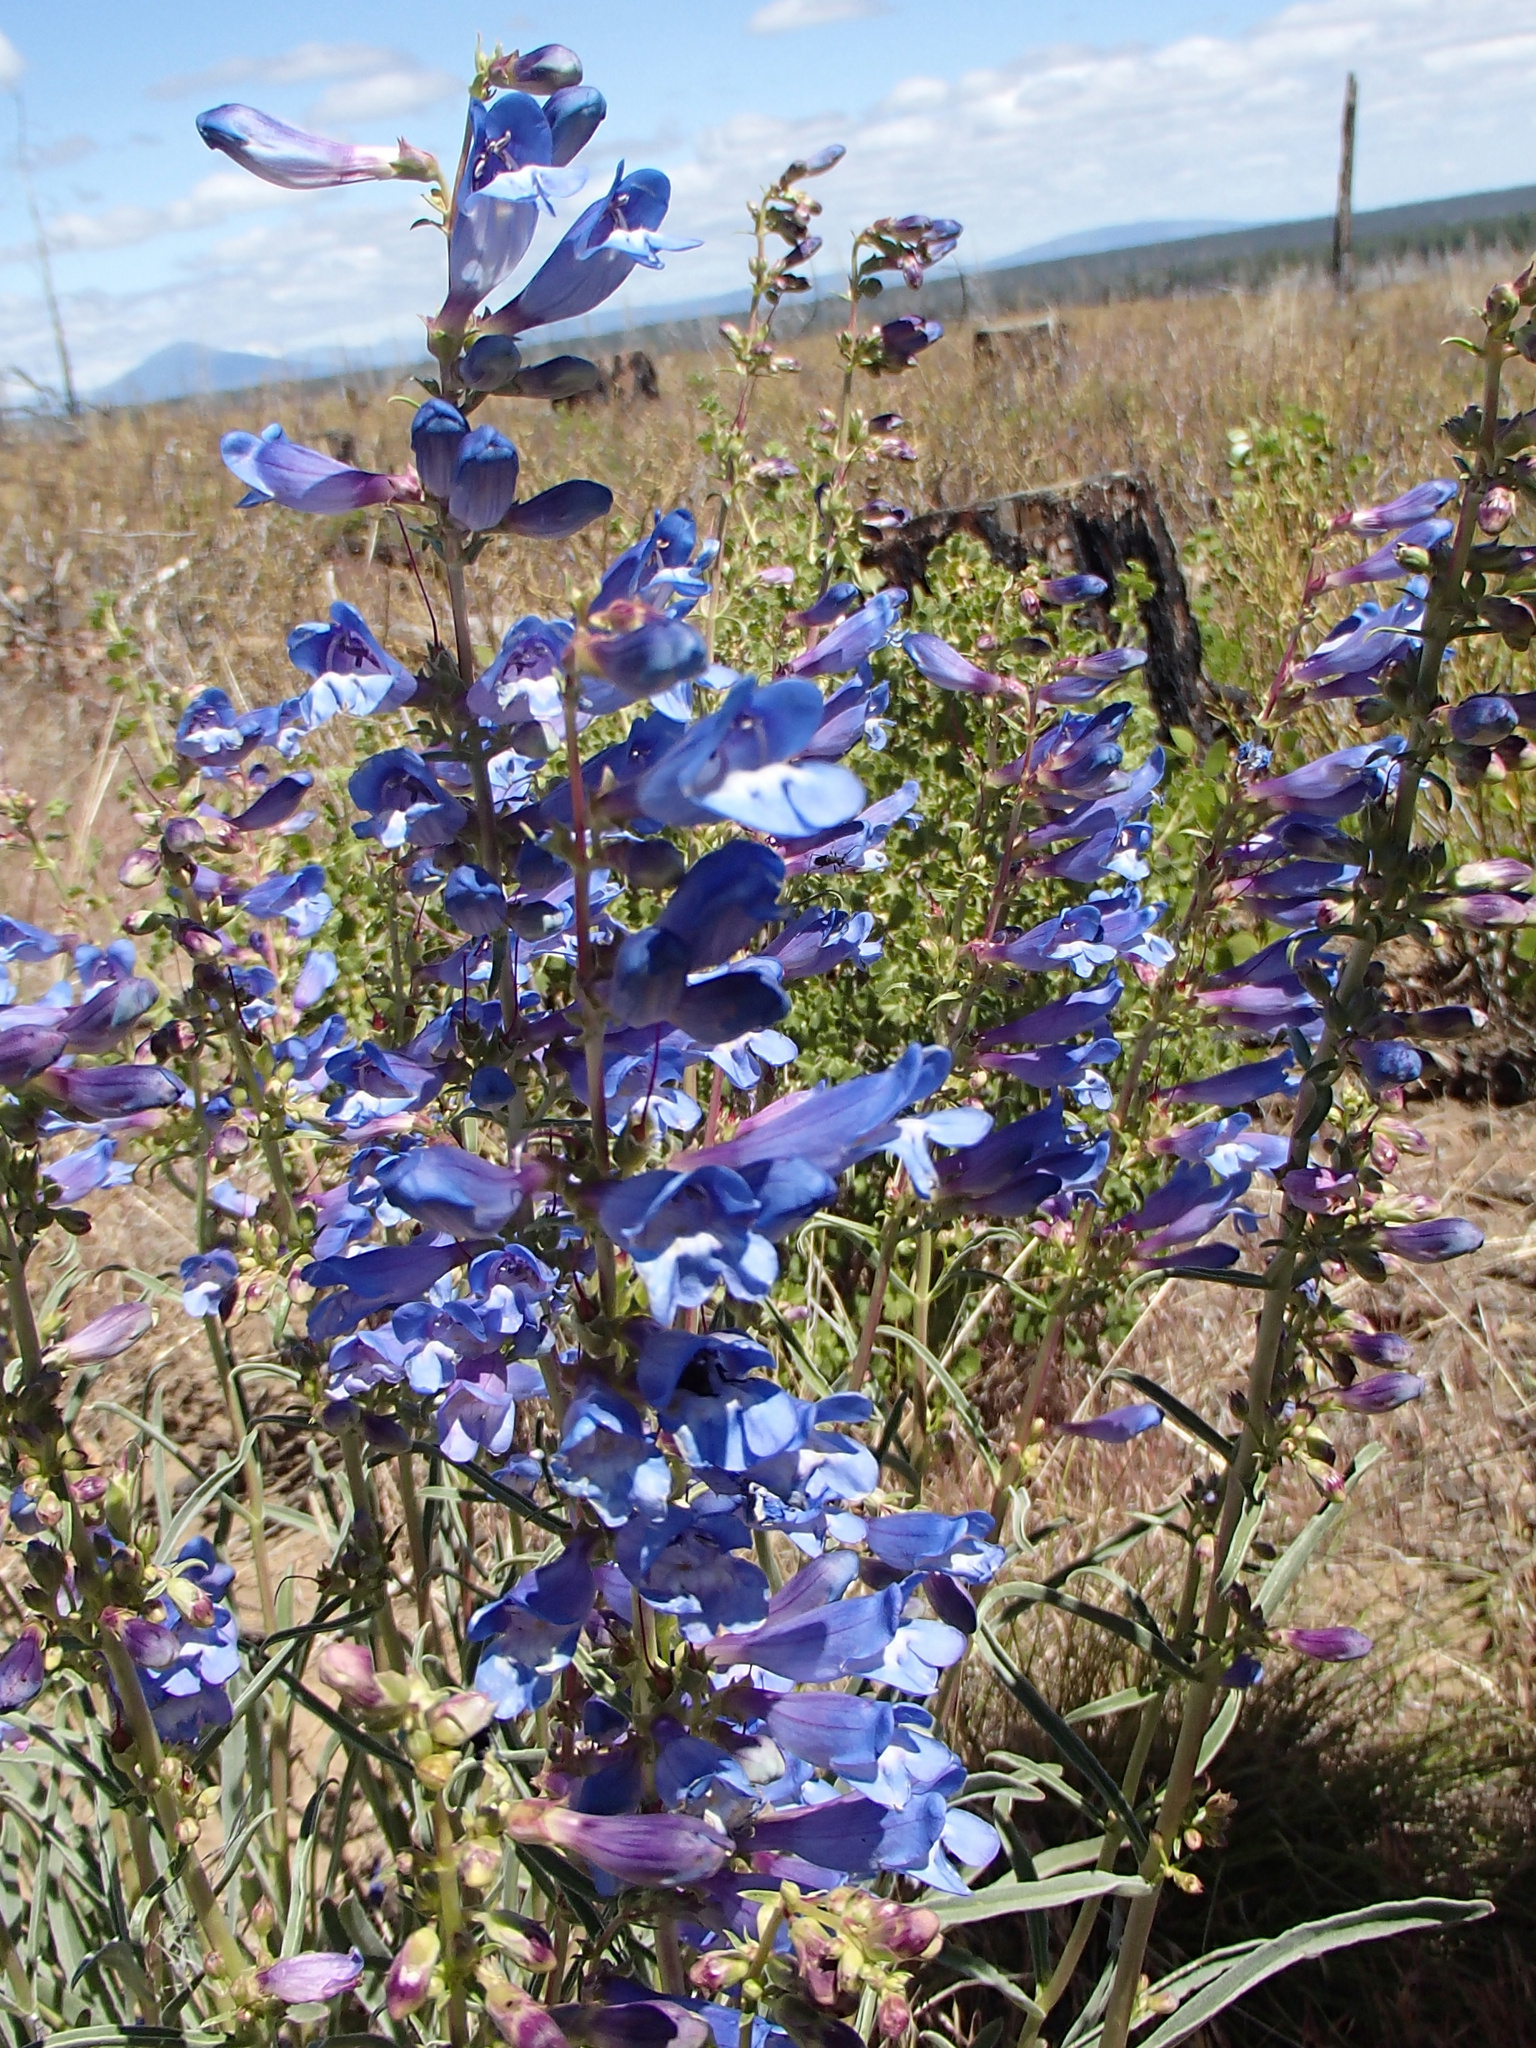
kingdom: Plantae
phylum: Tracheophyta
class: Magnoliopsida
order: Lamiales
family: Plantaginaceae
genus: Penstemon
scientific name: Penstemon speciosus
